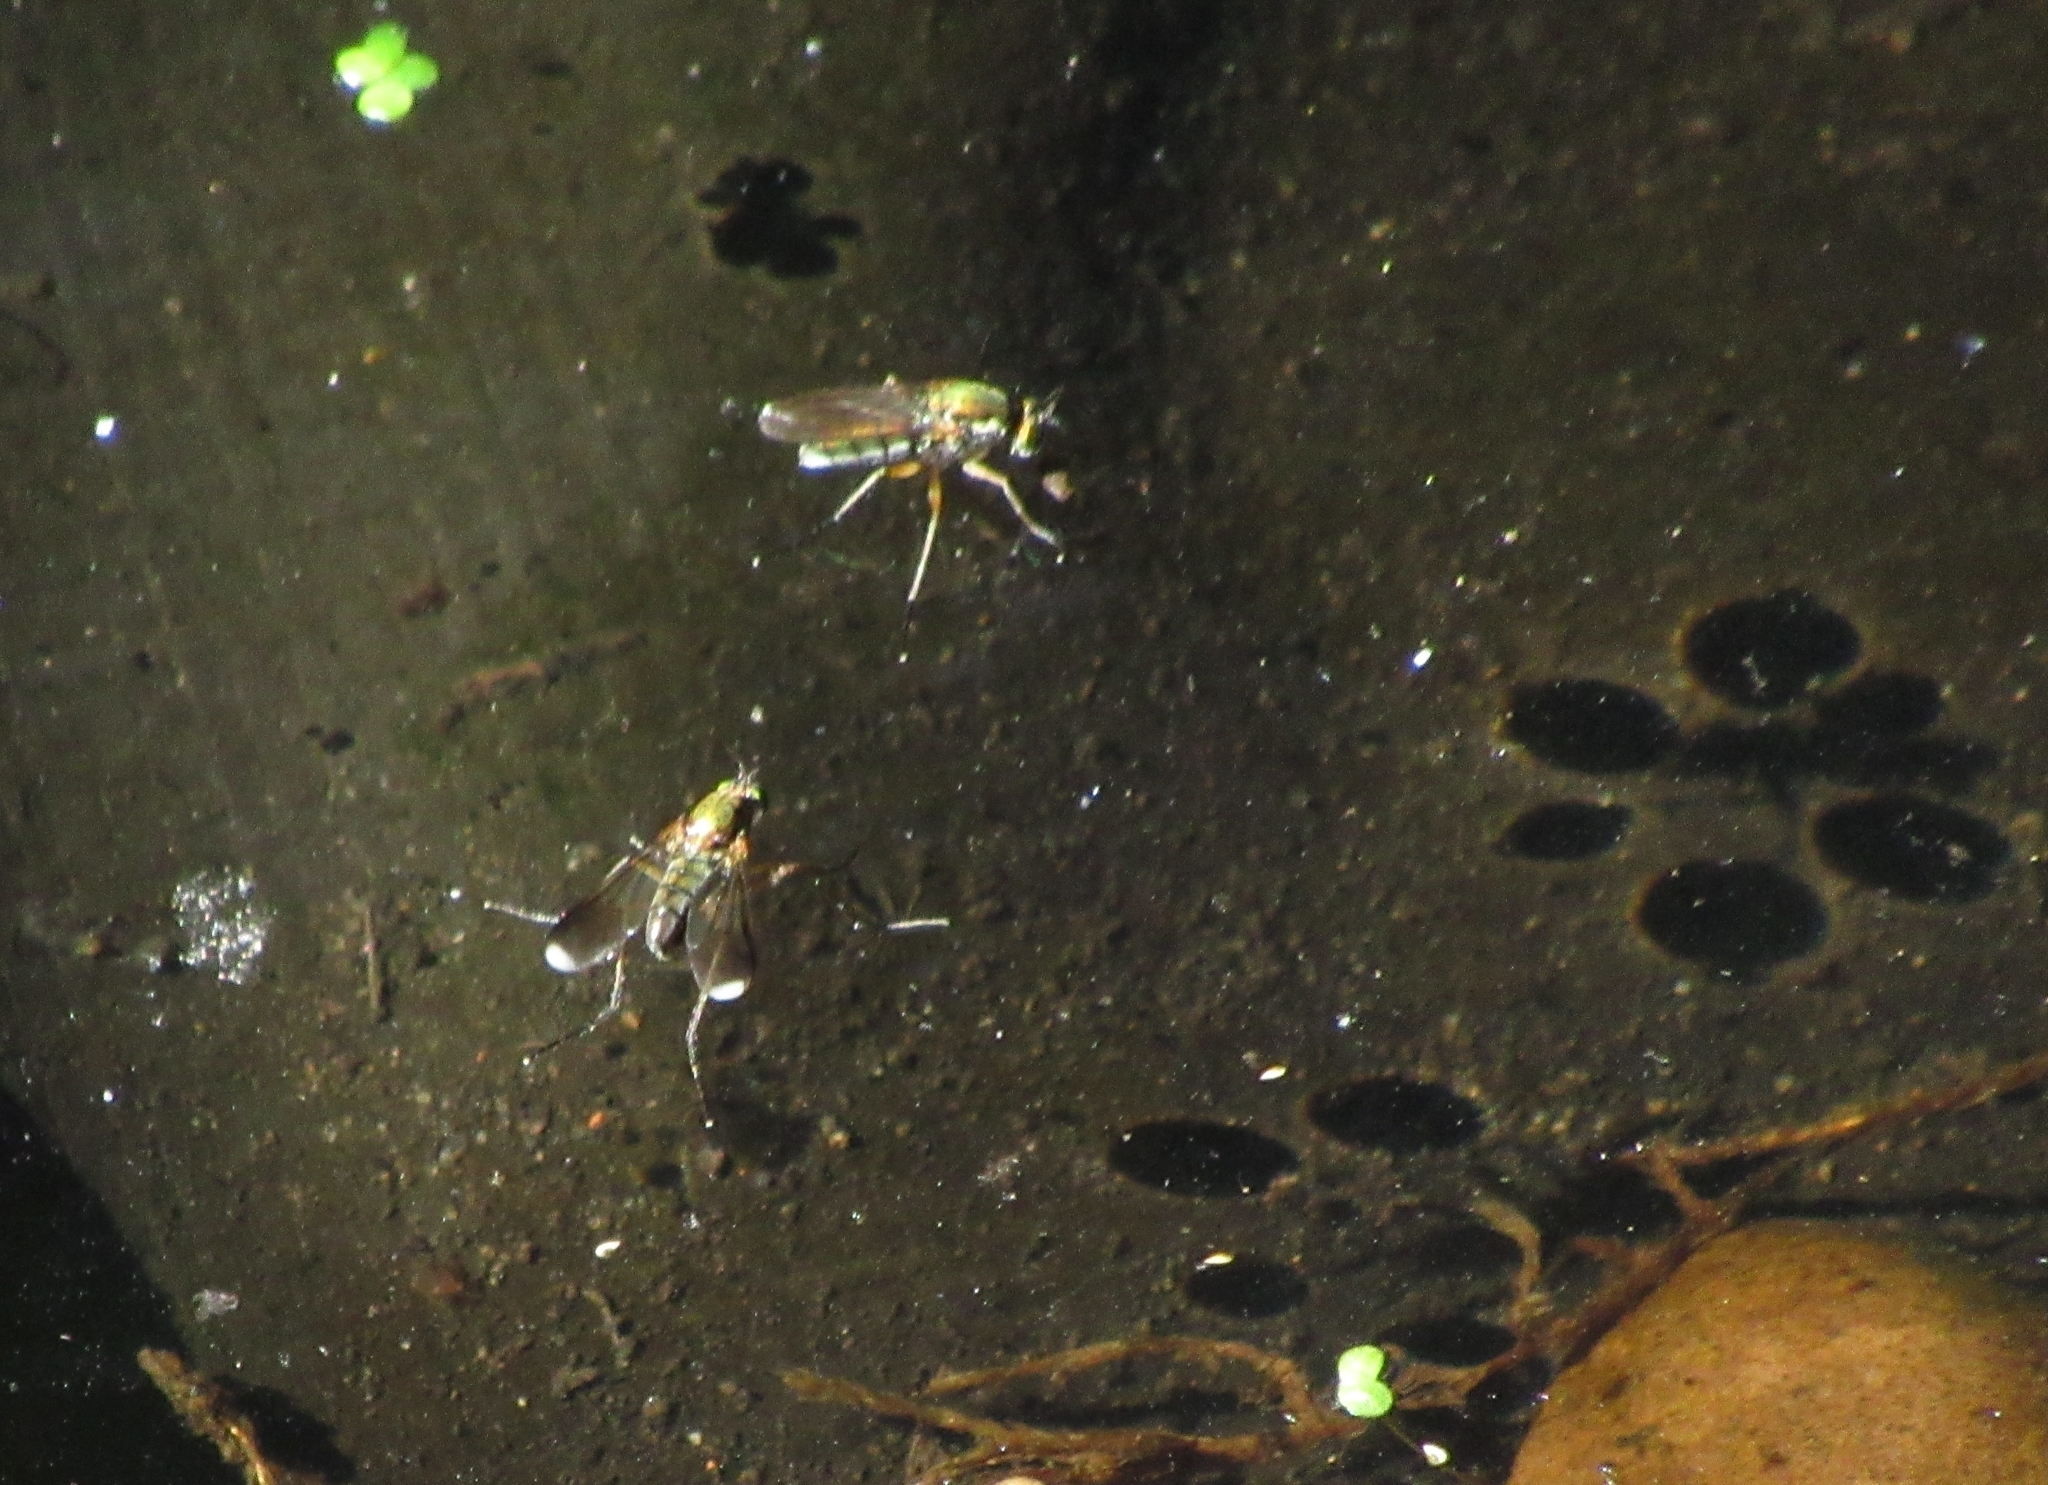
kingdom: Animalia
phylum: Arthropoda
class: Insecta
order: Diptera
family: Dolichopodidae
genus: Poecilobothrus
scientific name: Poecilobothrus nobilitatus
